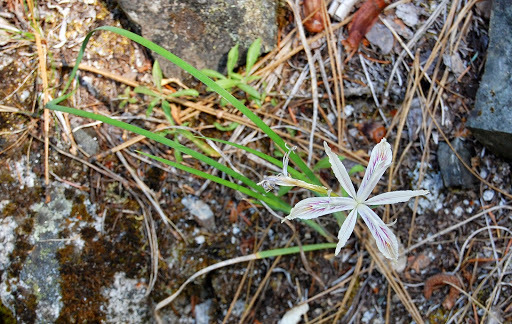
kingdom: Plantae
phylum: Tracheophyta
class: Liliopsida
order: Asparagales
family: Iridaceae
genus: Iris
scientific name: Iris purdyi
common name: Purdy's iris
